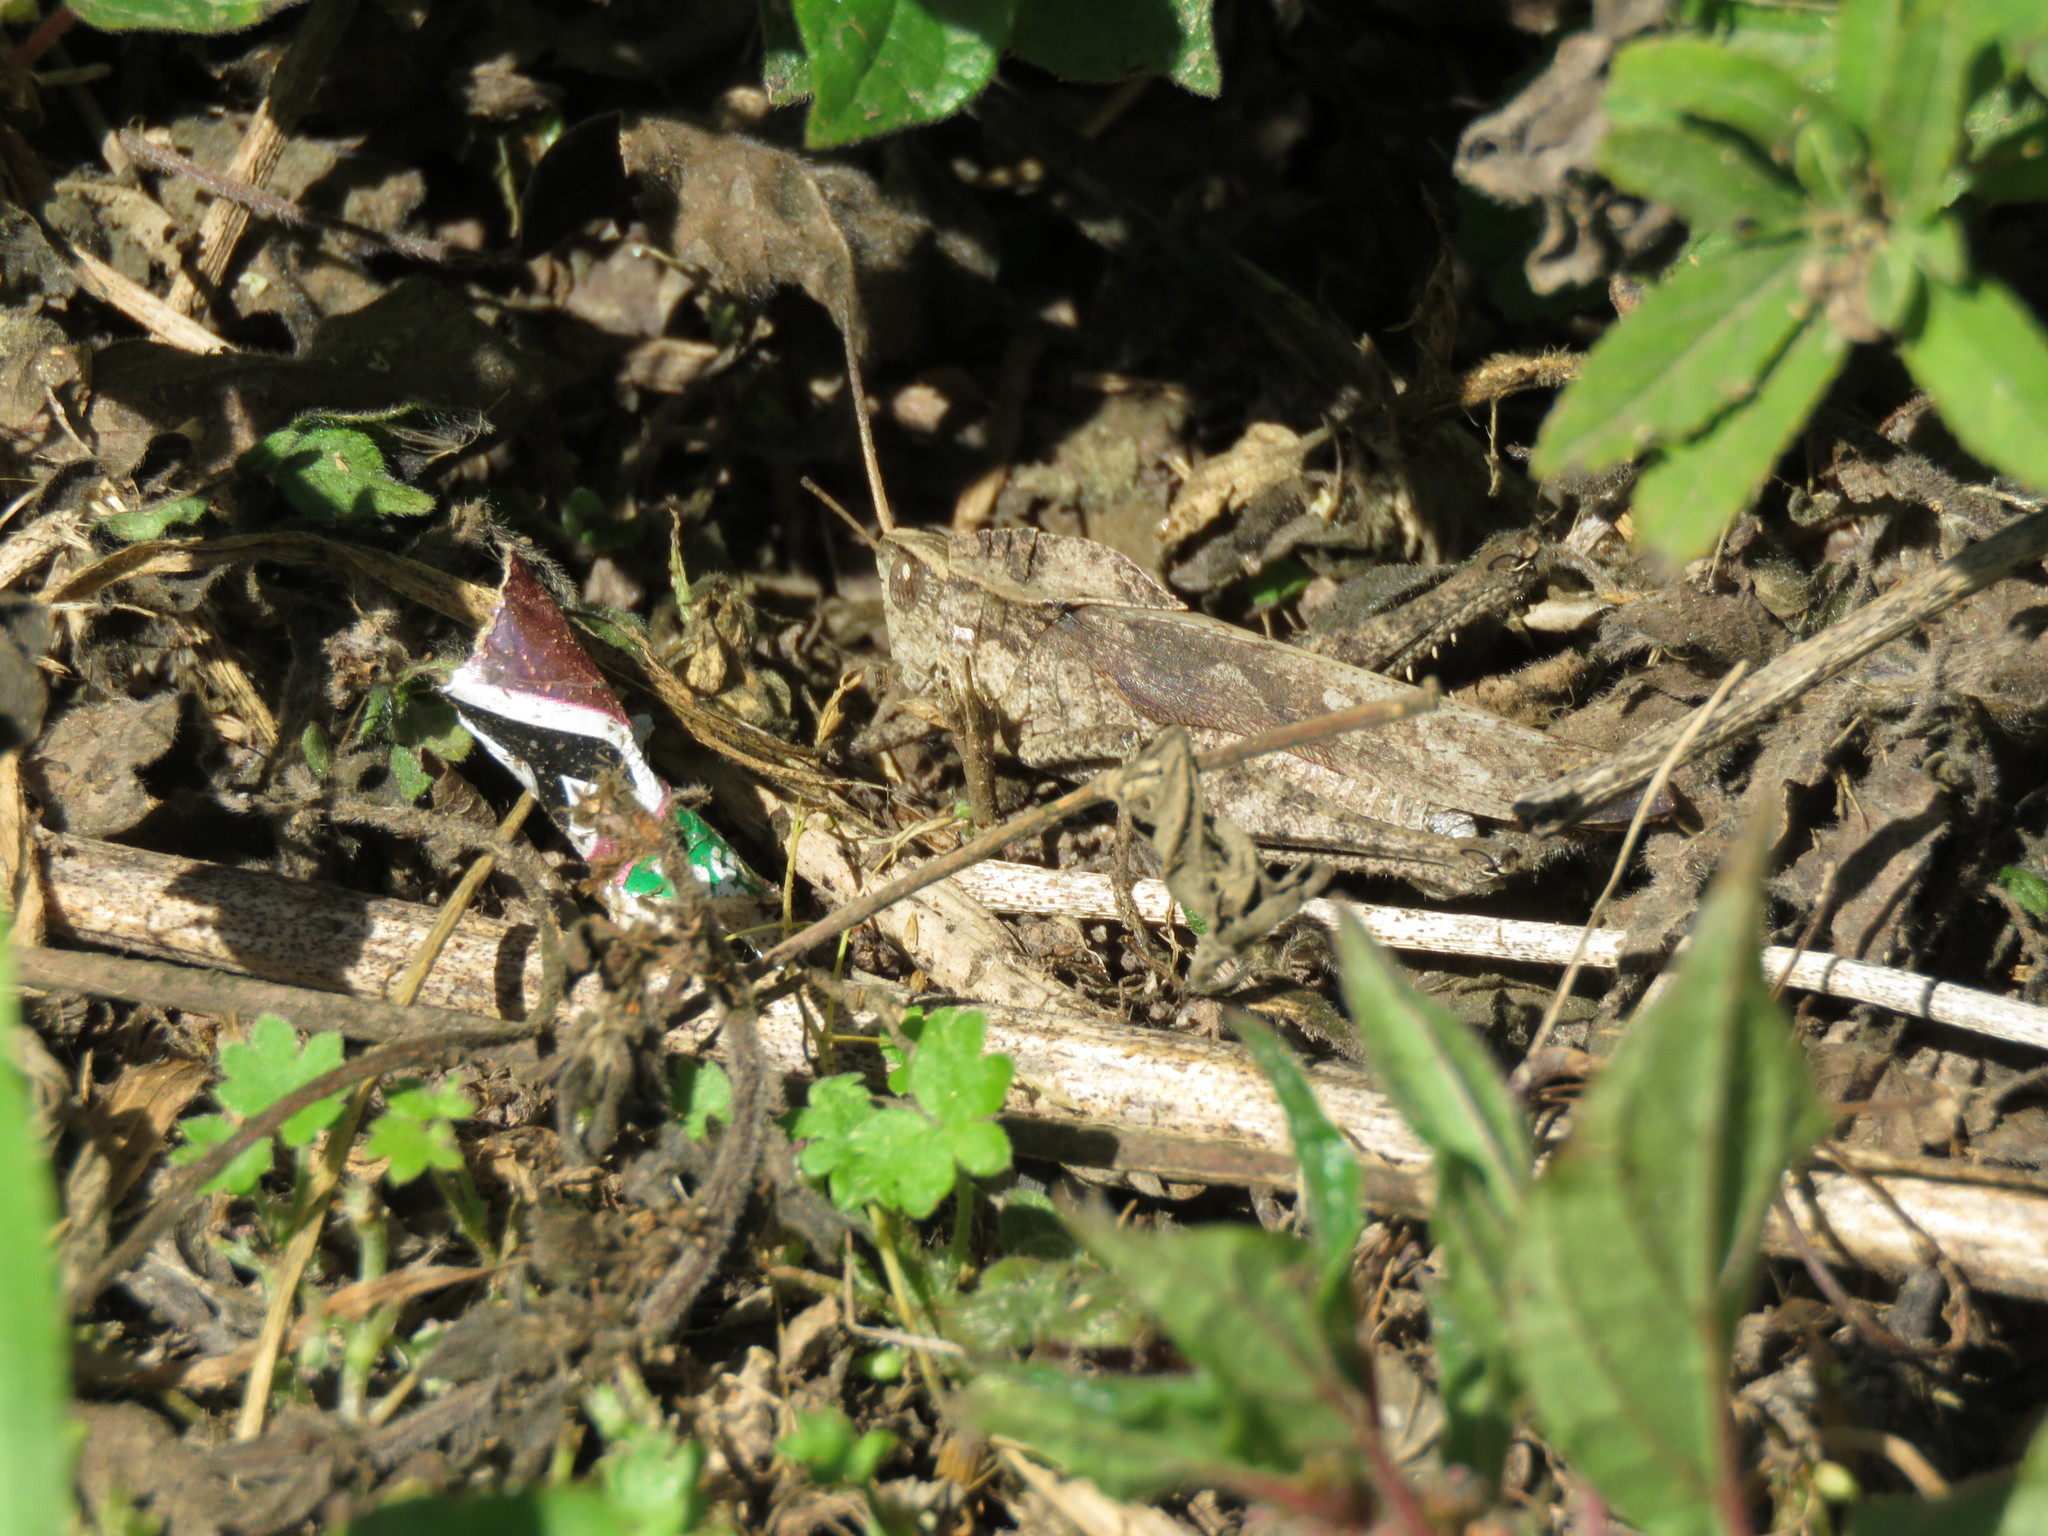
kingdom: Animalia
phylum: Arthropoda
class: Insecta
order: Orthoptera
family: Romaleidae
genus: Xyleus
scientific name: Xyleus discoideus
